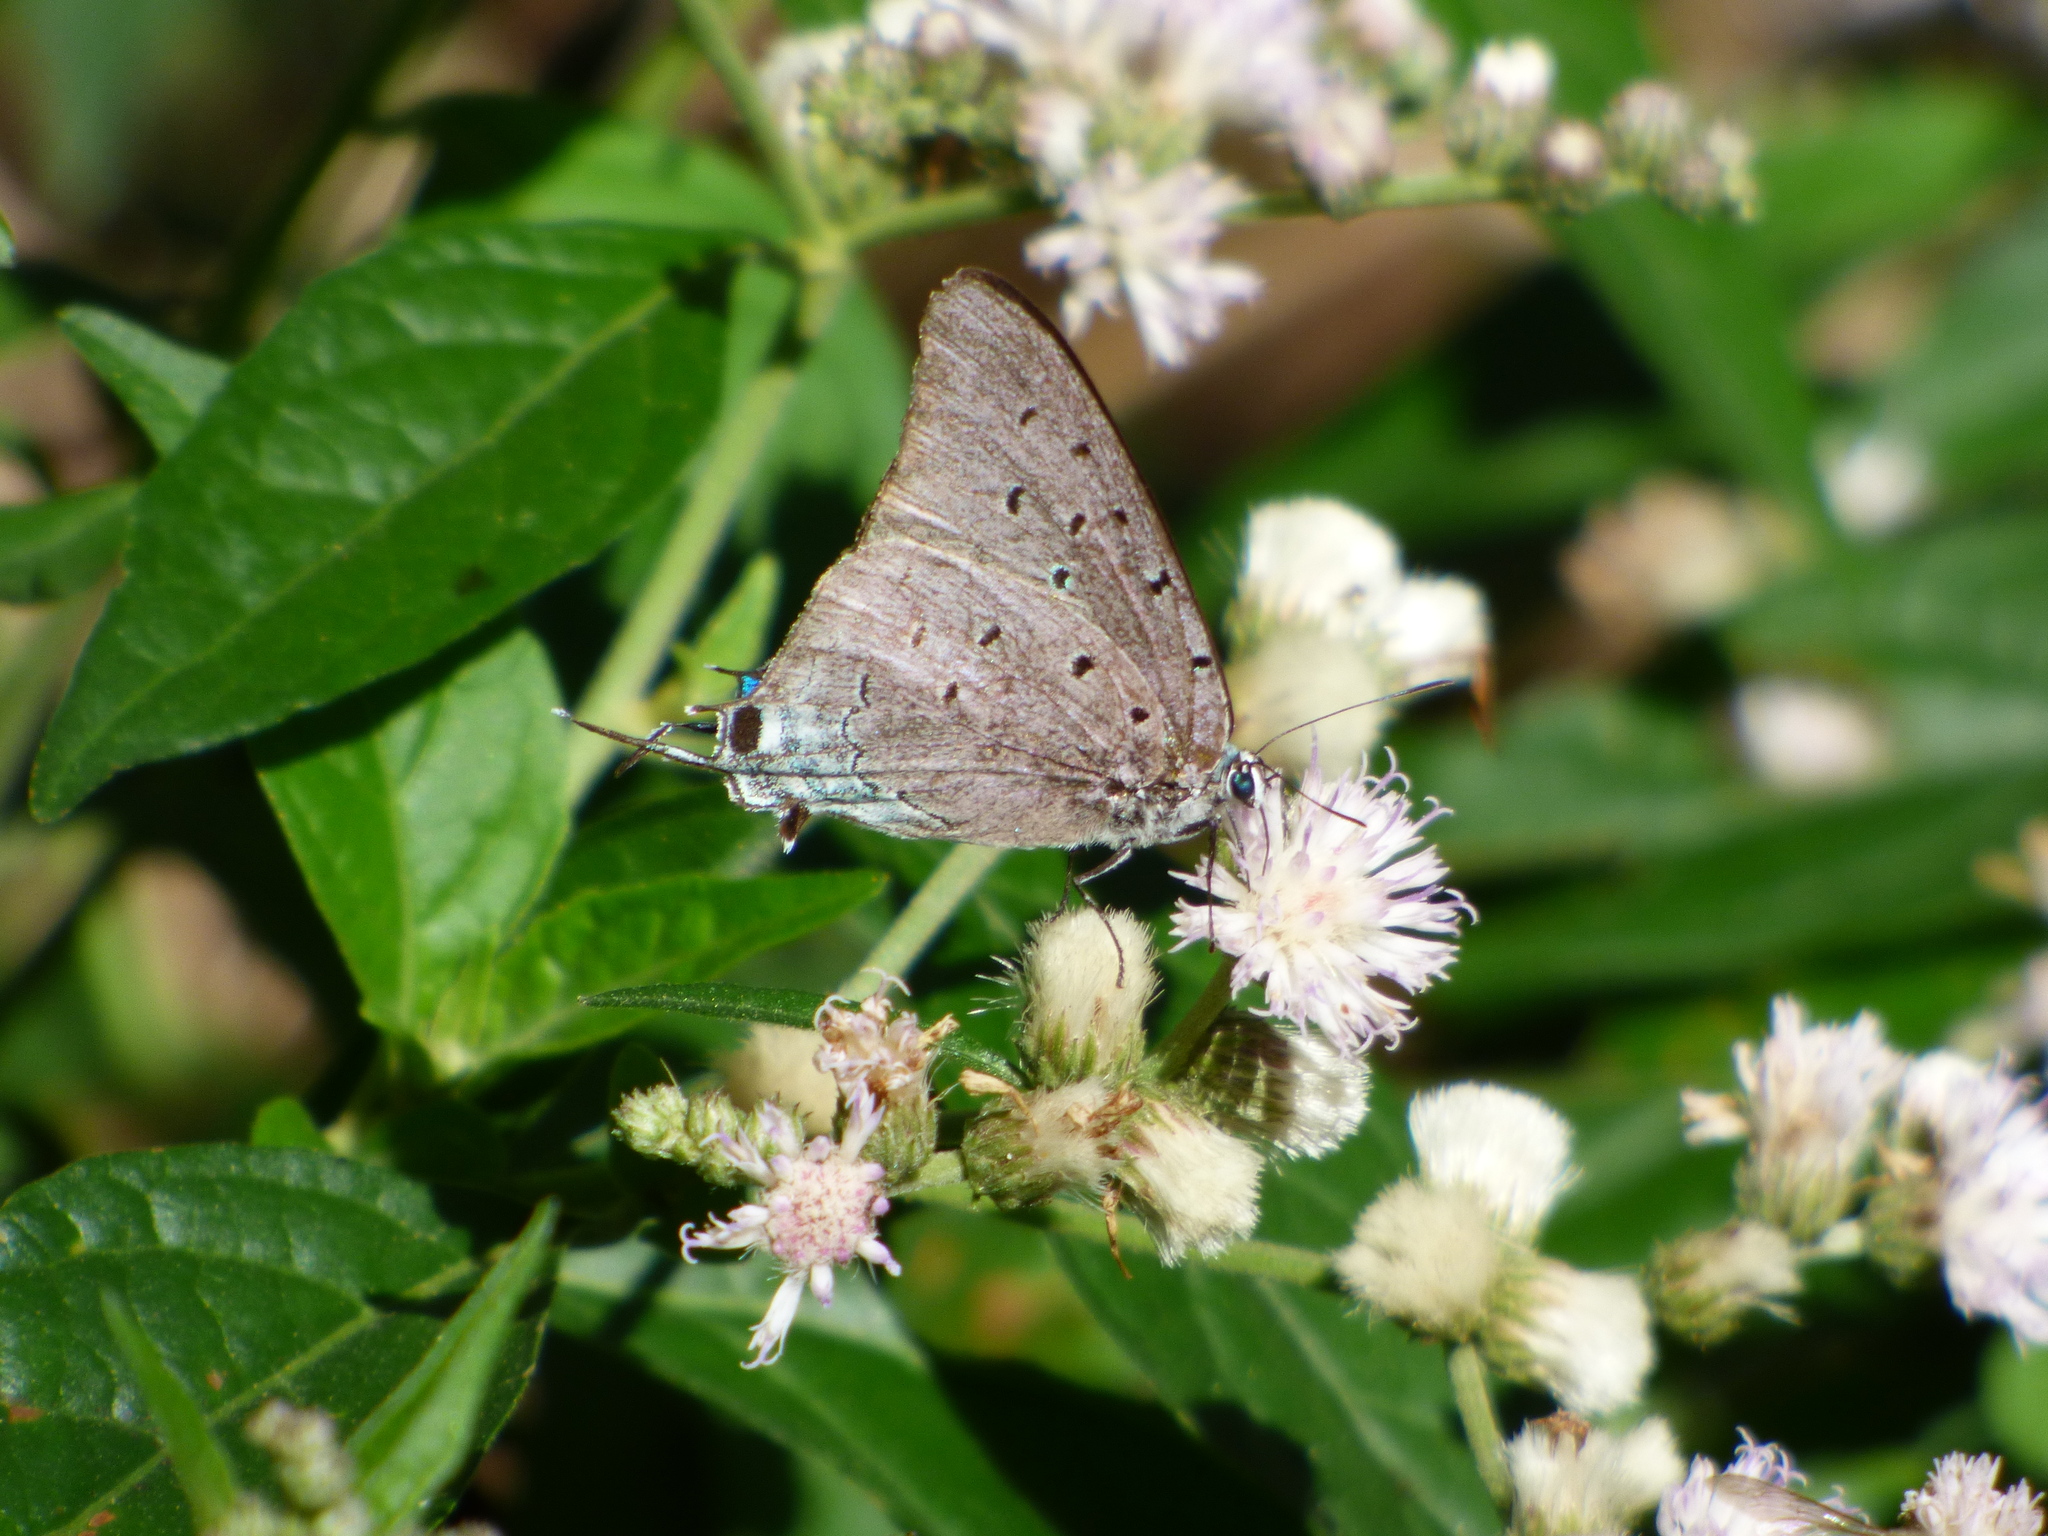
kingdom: Animalia
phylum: Arthropoda
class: Insecta
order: Lepidoptera
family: Lycaenidae
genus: Pseudolycaena
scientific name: Pseudolycaena marsyas
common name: Marsyas hairstreak
